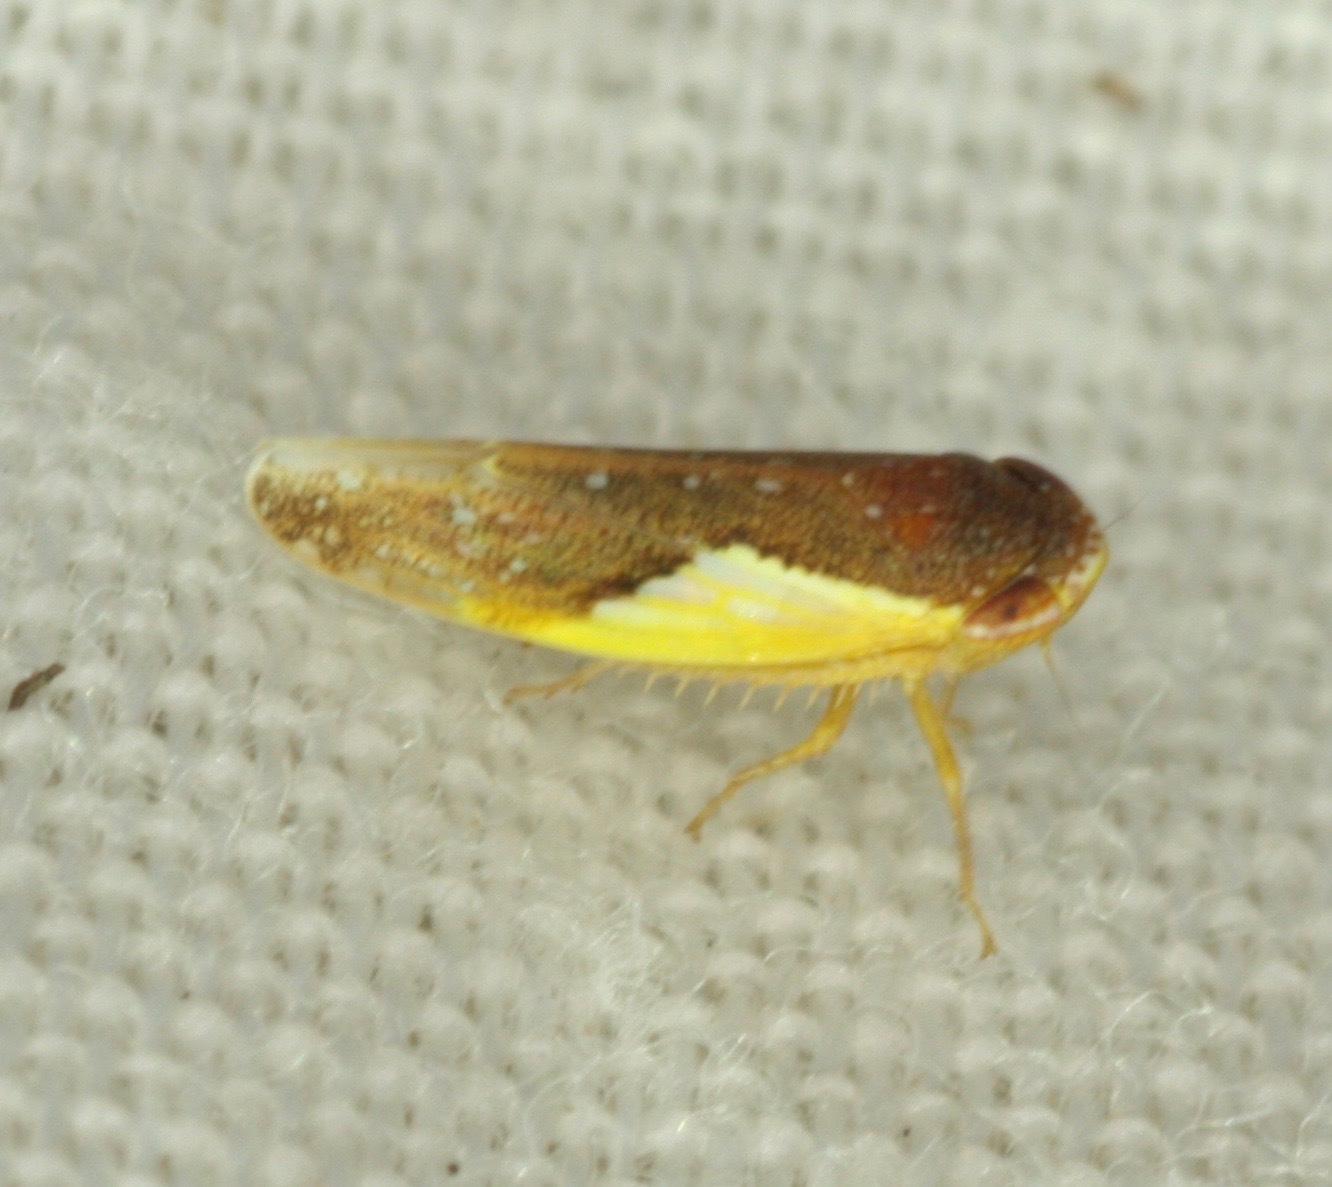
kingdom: Animalia
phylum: Arthropoda
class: Insecta
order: Hemiptera
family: Cicadellidae
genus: Norvellina
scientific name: Norvellina flavida
